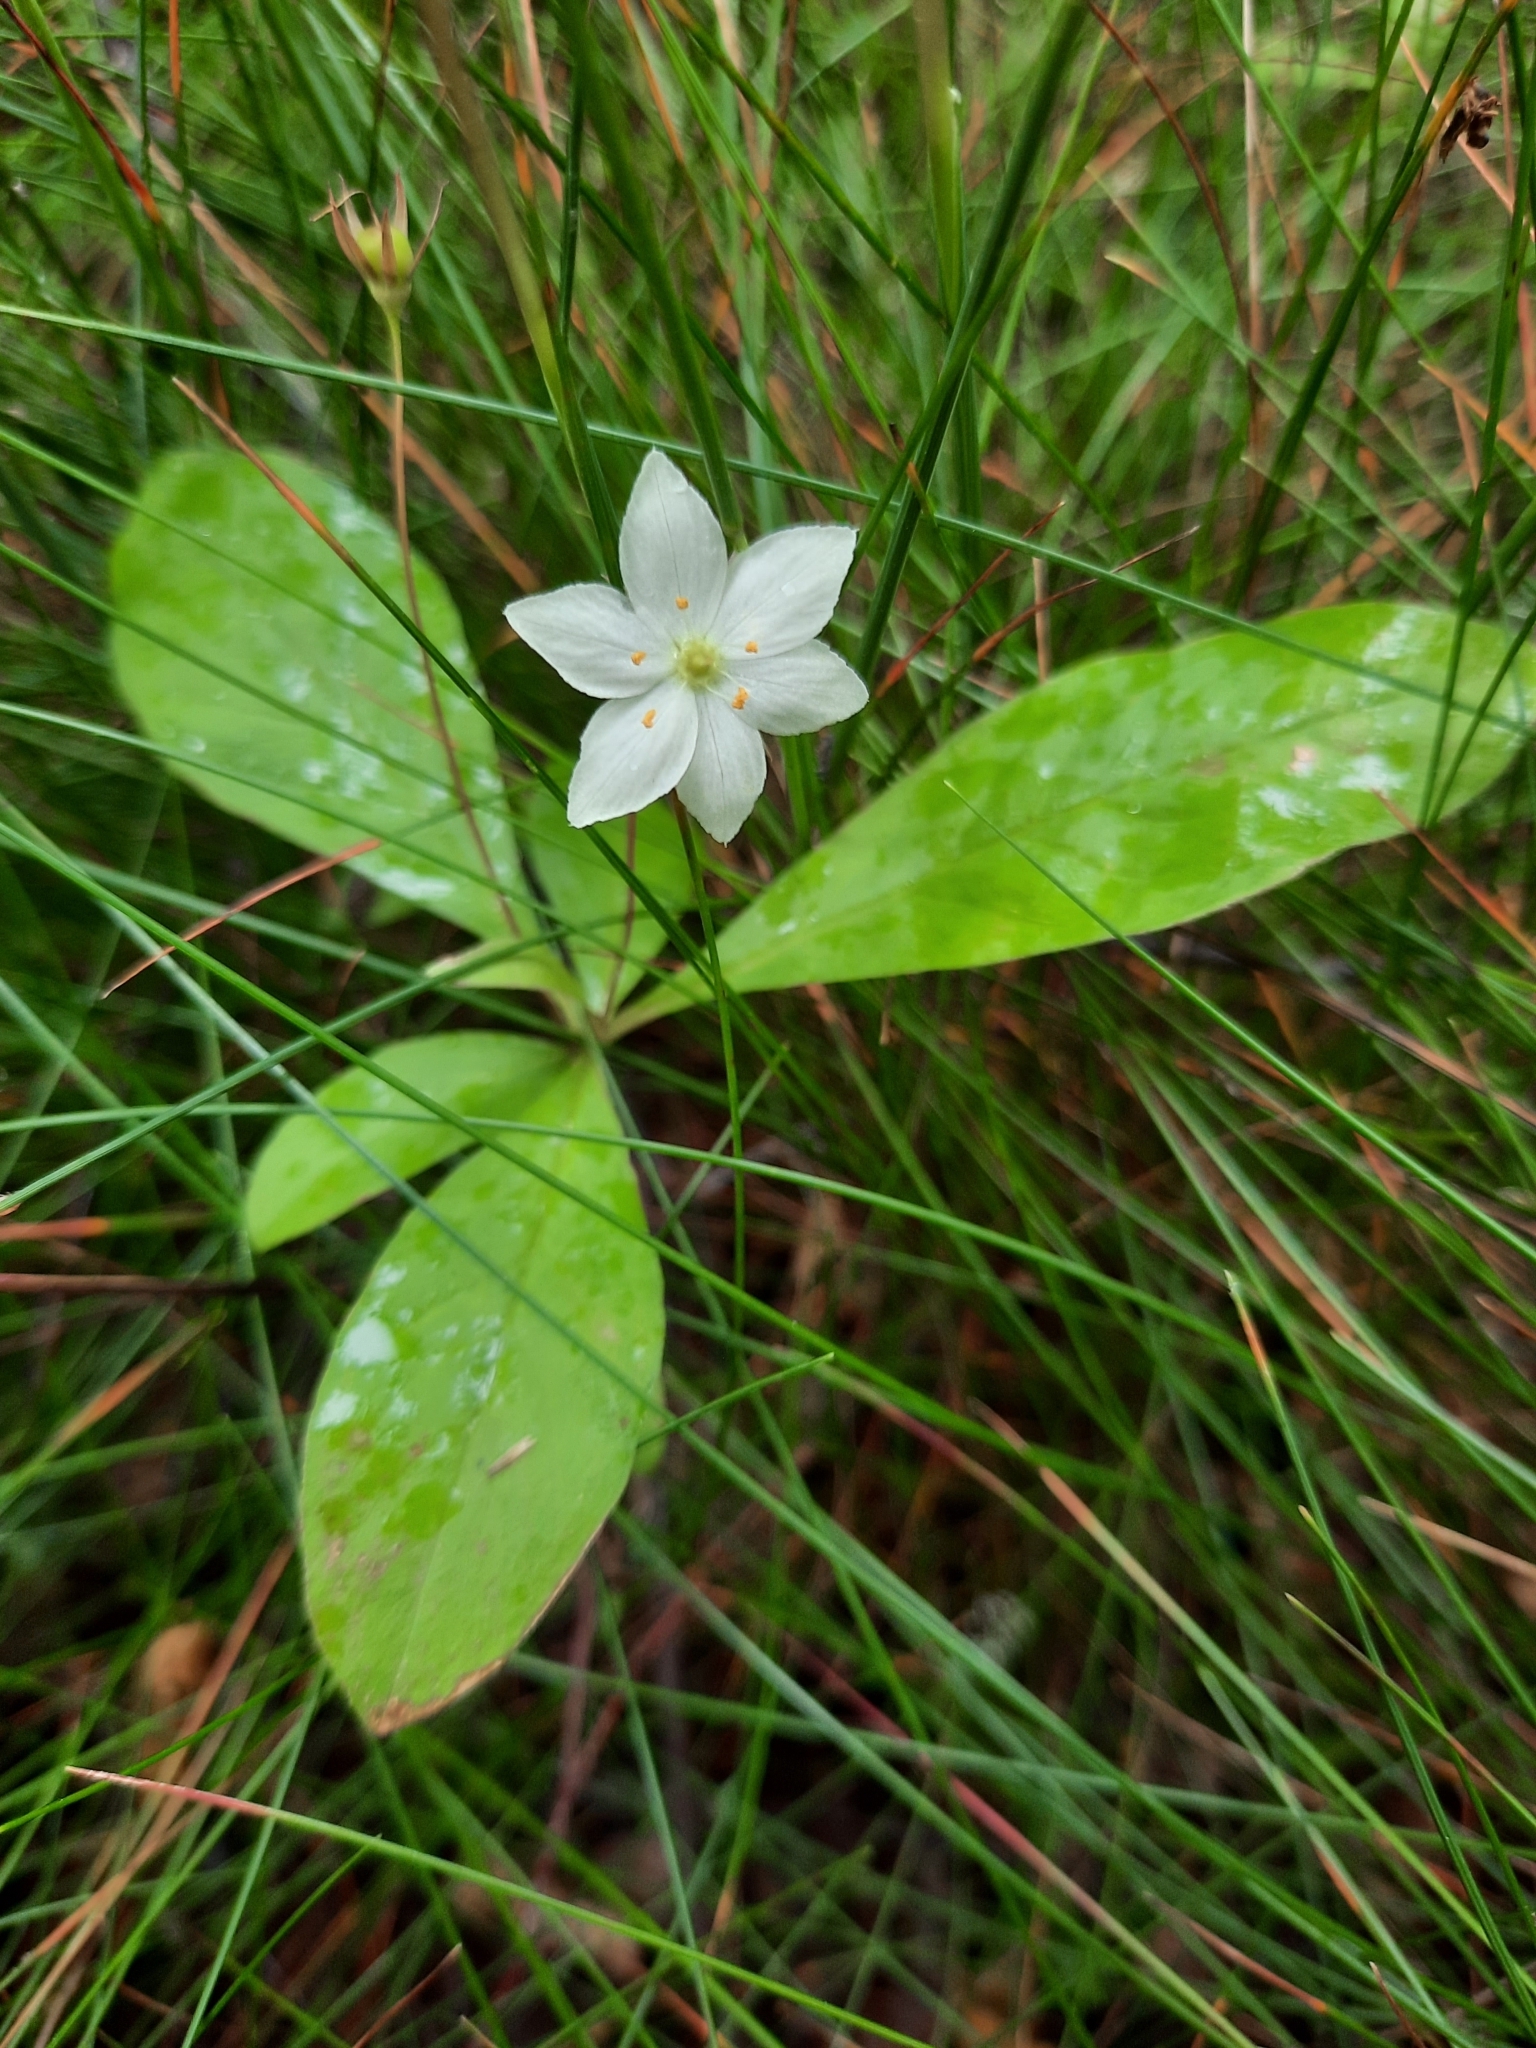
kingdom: Plantae
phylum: Tracheophyta
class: Magnoliopsida
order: Ericales
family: Primulaceae
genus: Lysimachia
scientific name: Lysimachia europaea
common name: Arctic starflower
